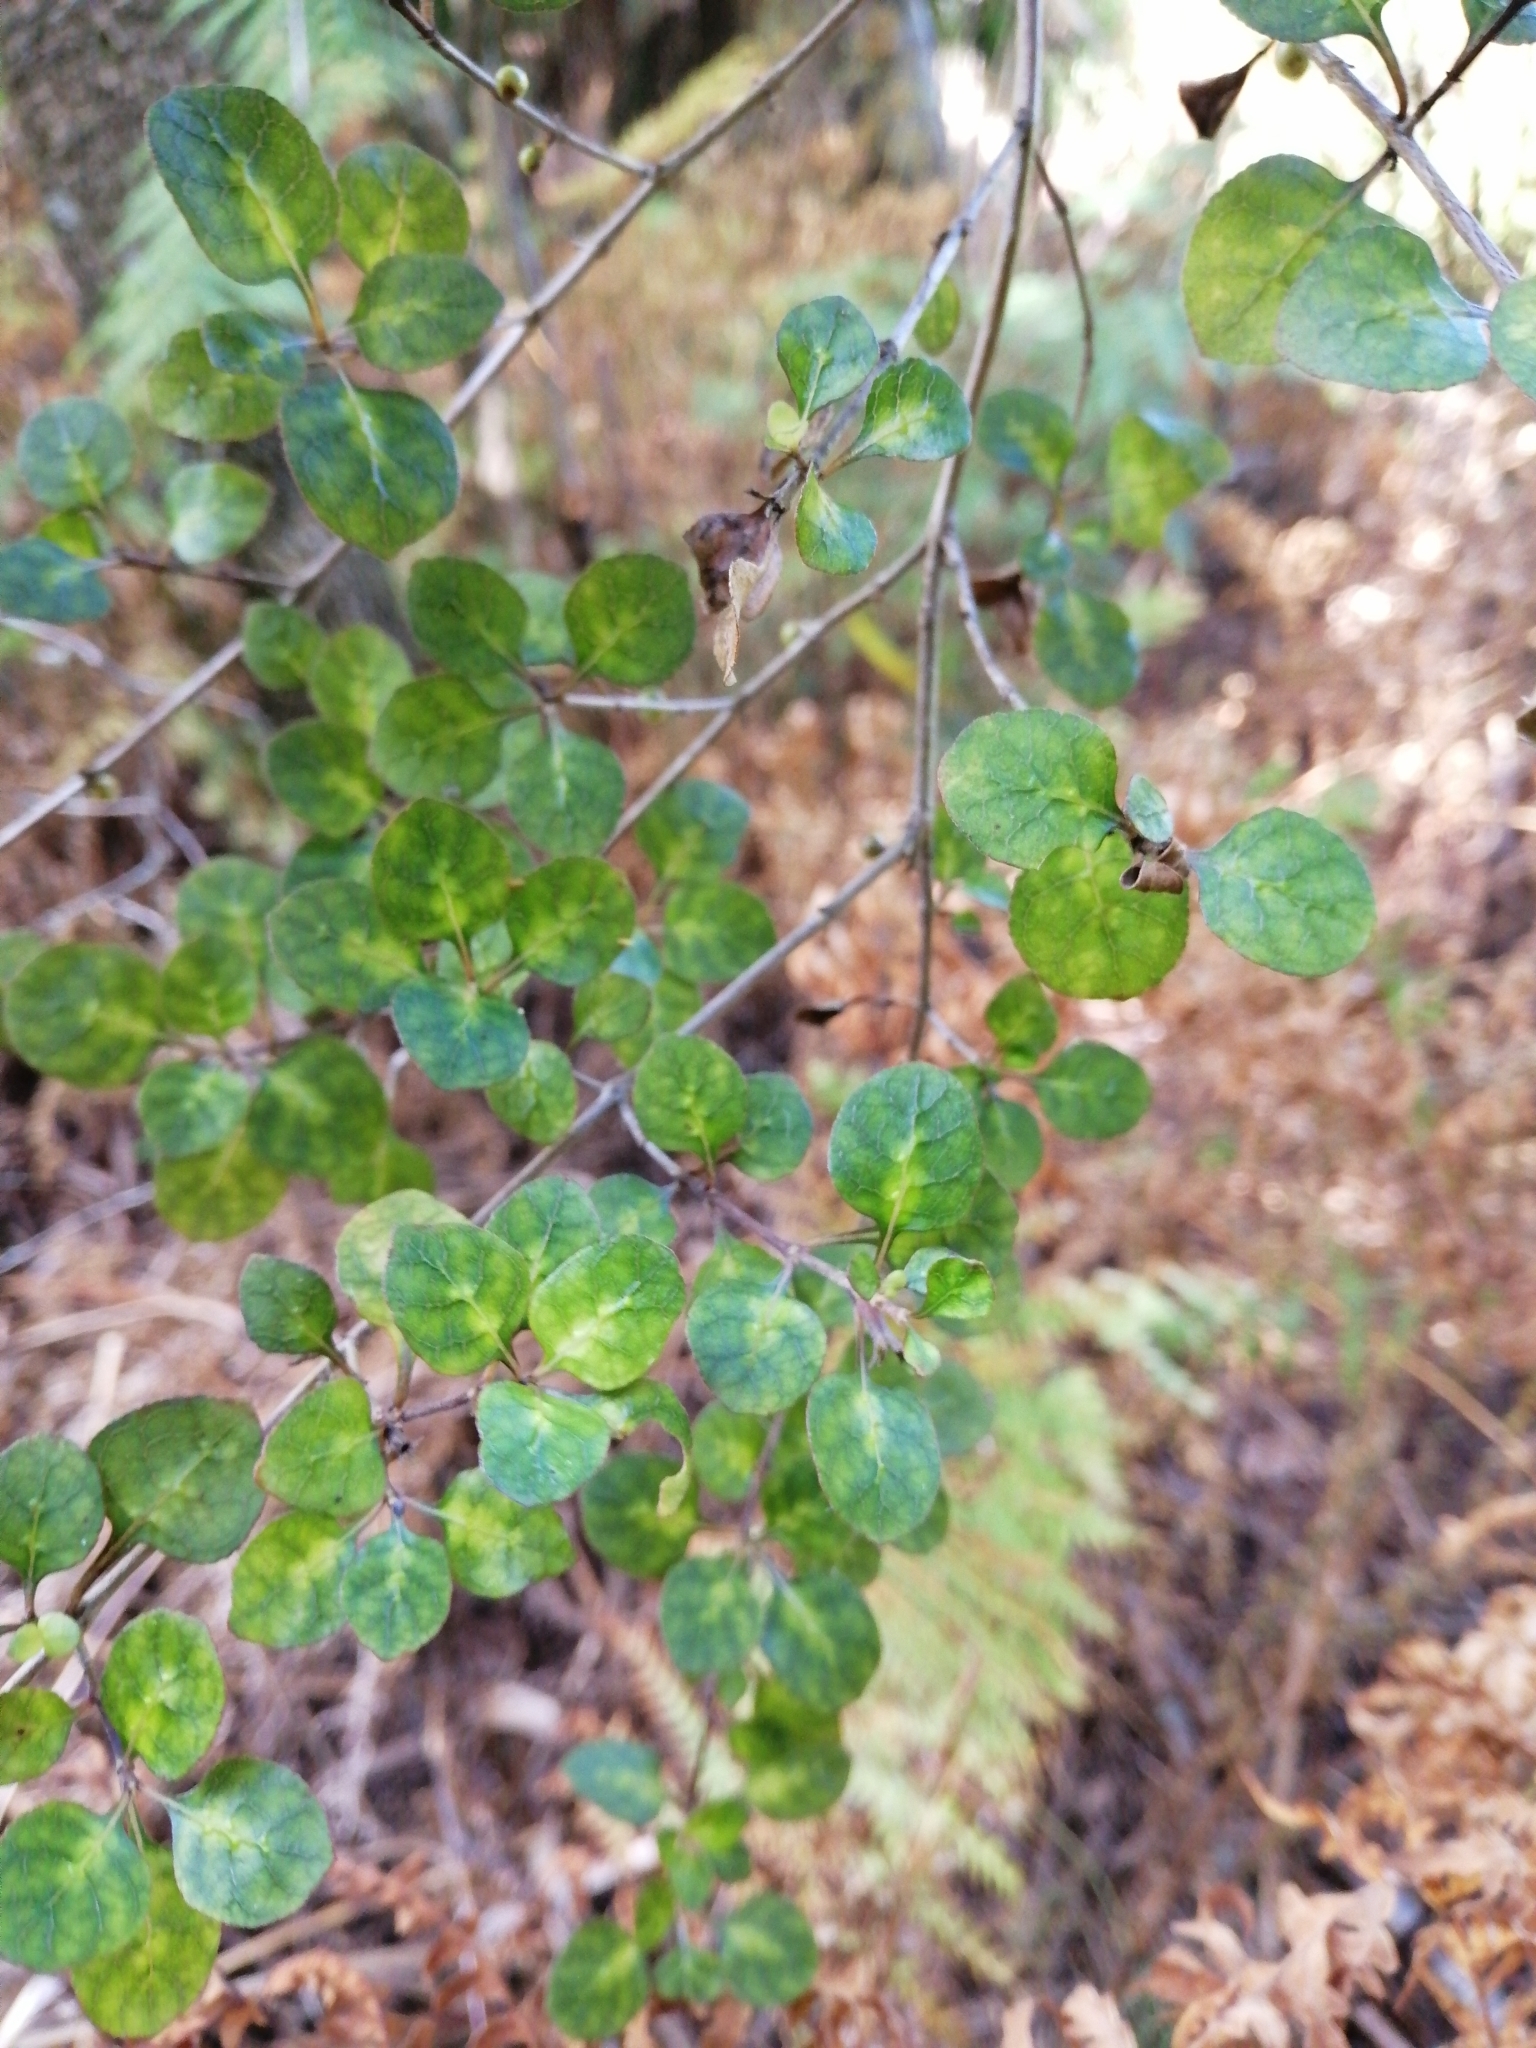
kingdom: Plantae
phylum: Tracheophyta
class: Magnoliopsida
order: Gentianales
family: Rubiaceae
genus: Coprosma
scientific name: Coprosma tenuicaulis
